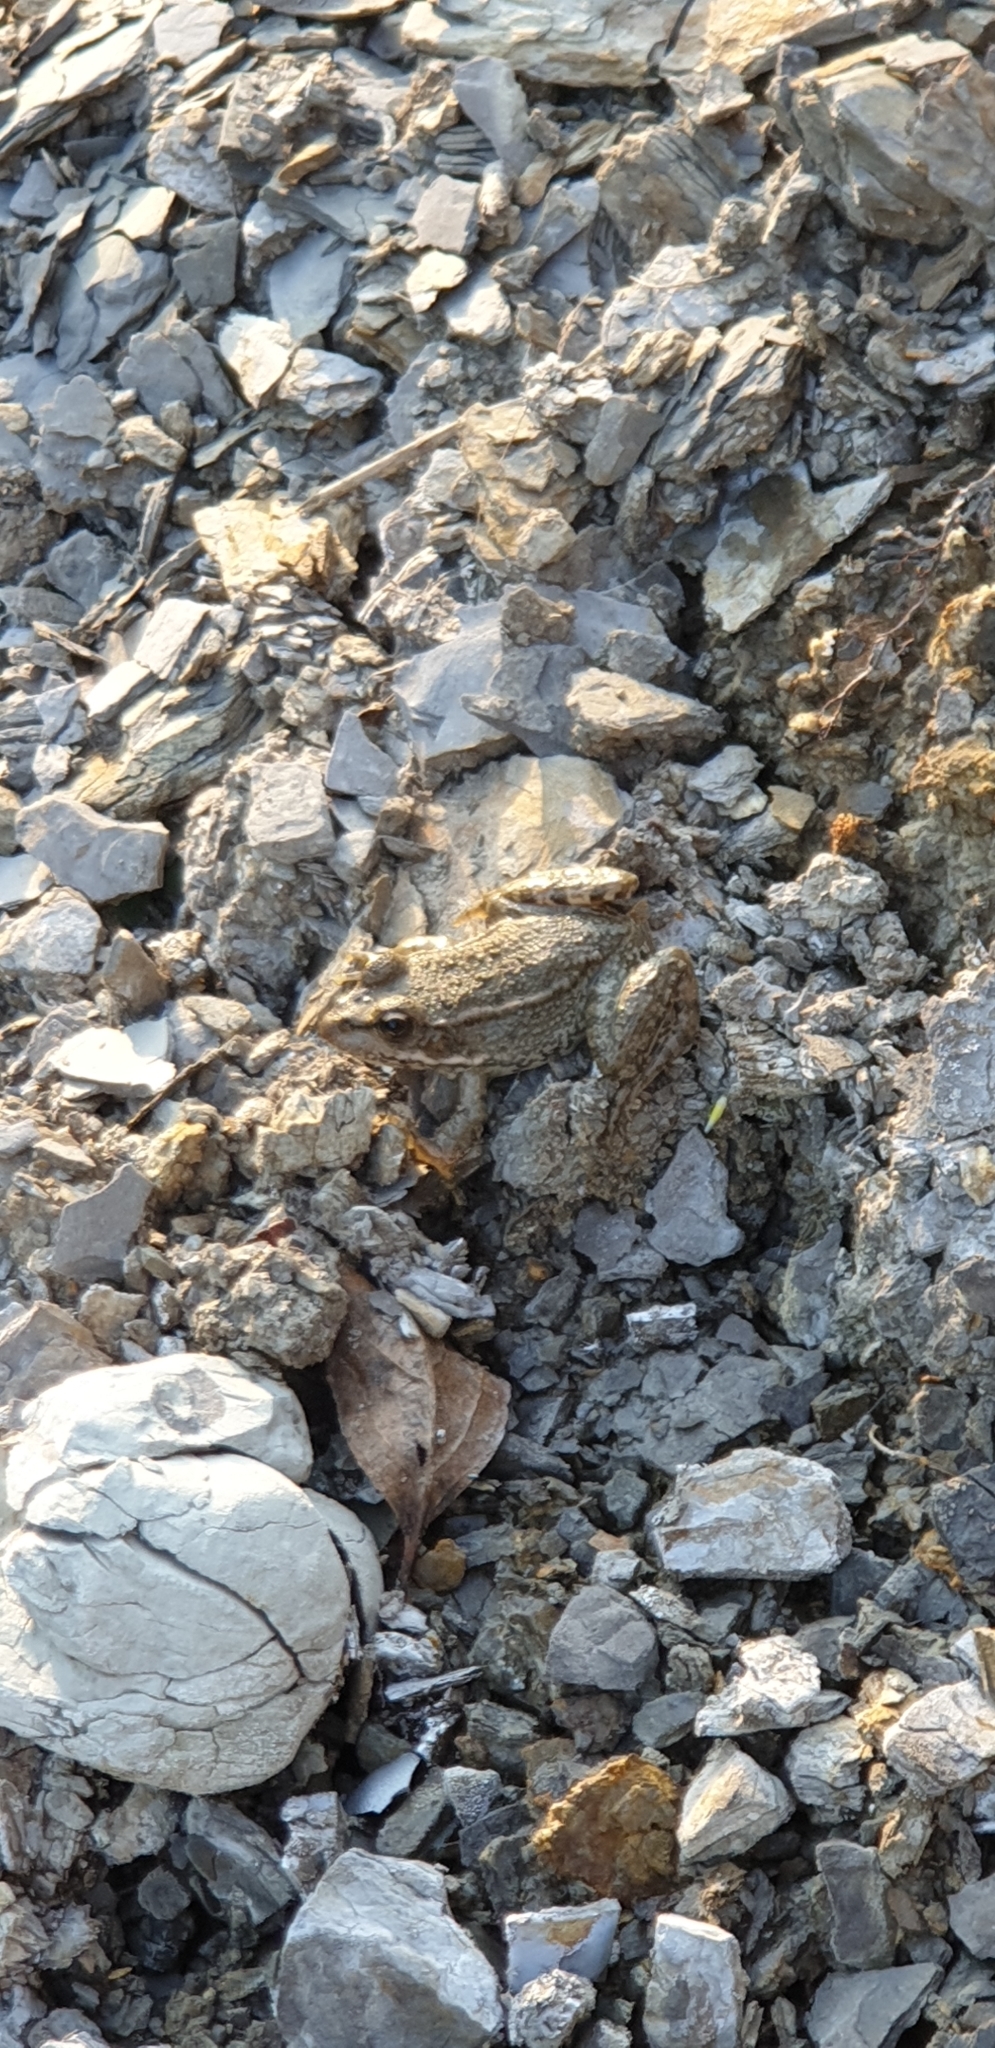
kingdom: Animalia
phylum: Chordata
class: Amphibia
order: Anura
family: Ranidae
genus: Pelophylax
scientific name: Pelophylax ridibundus
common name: Marsh frog
